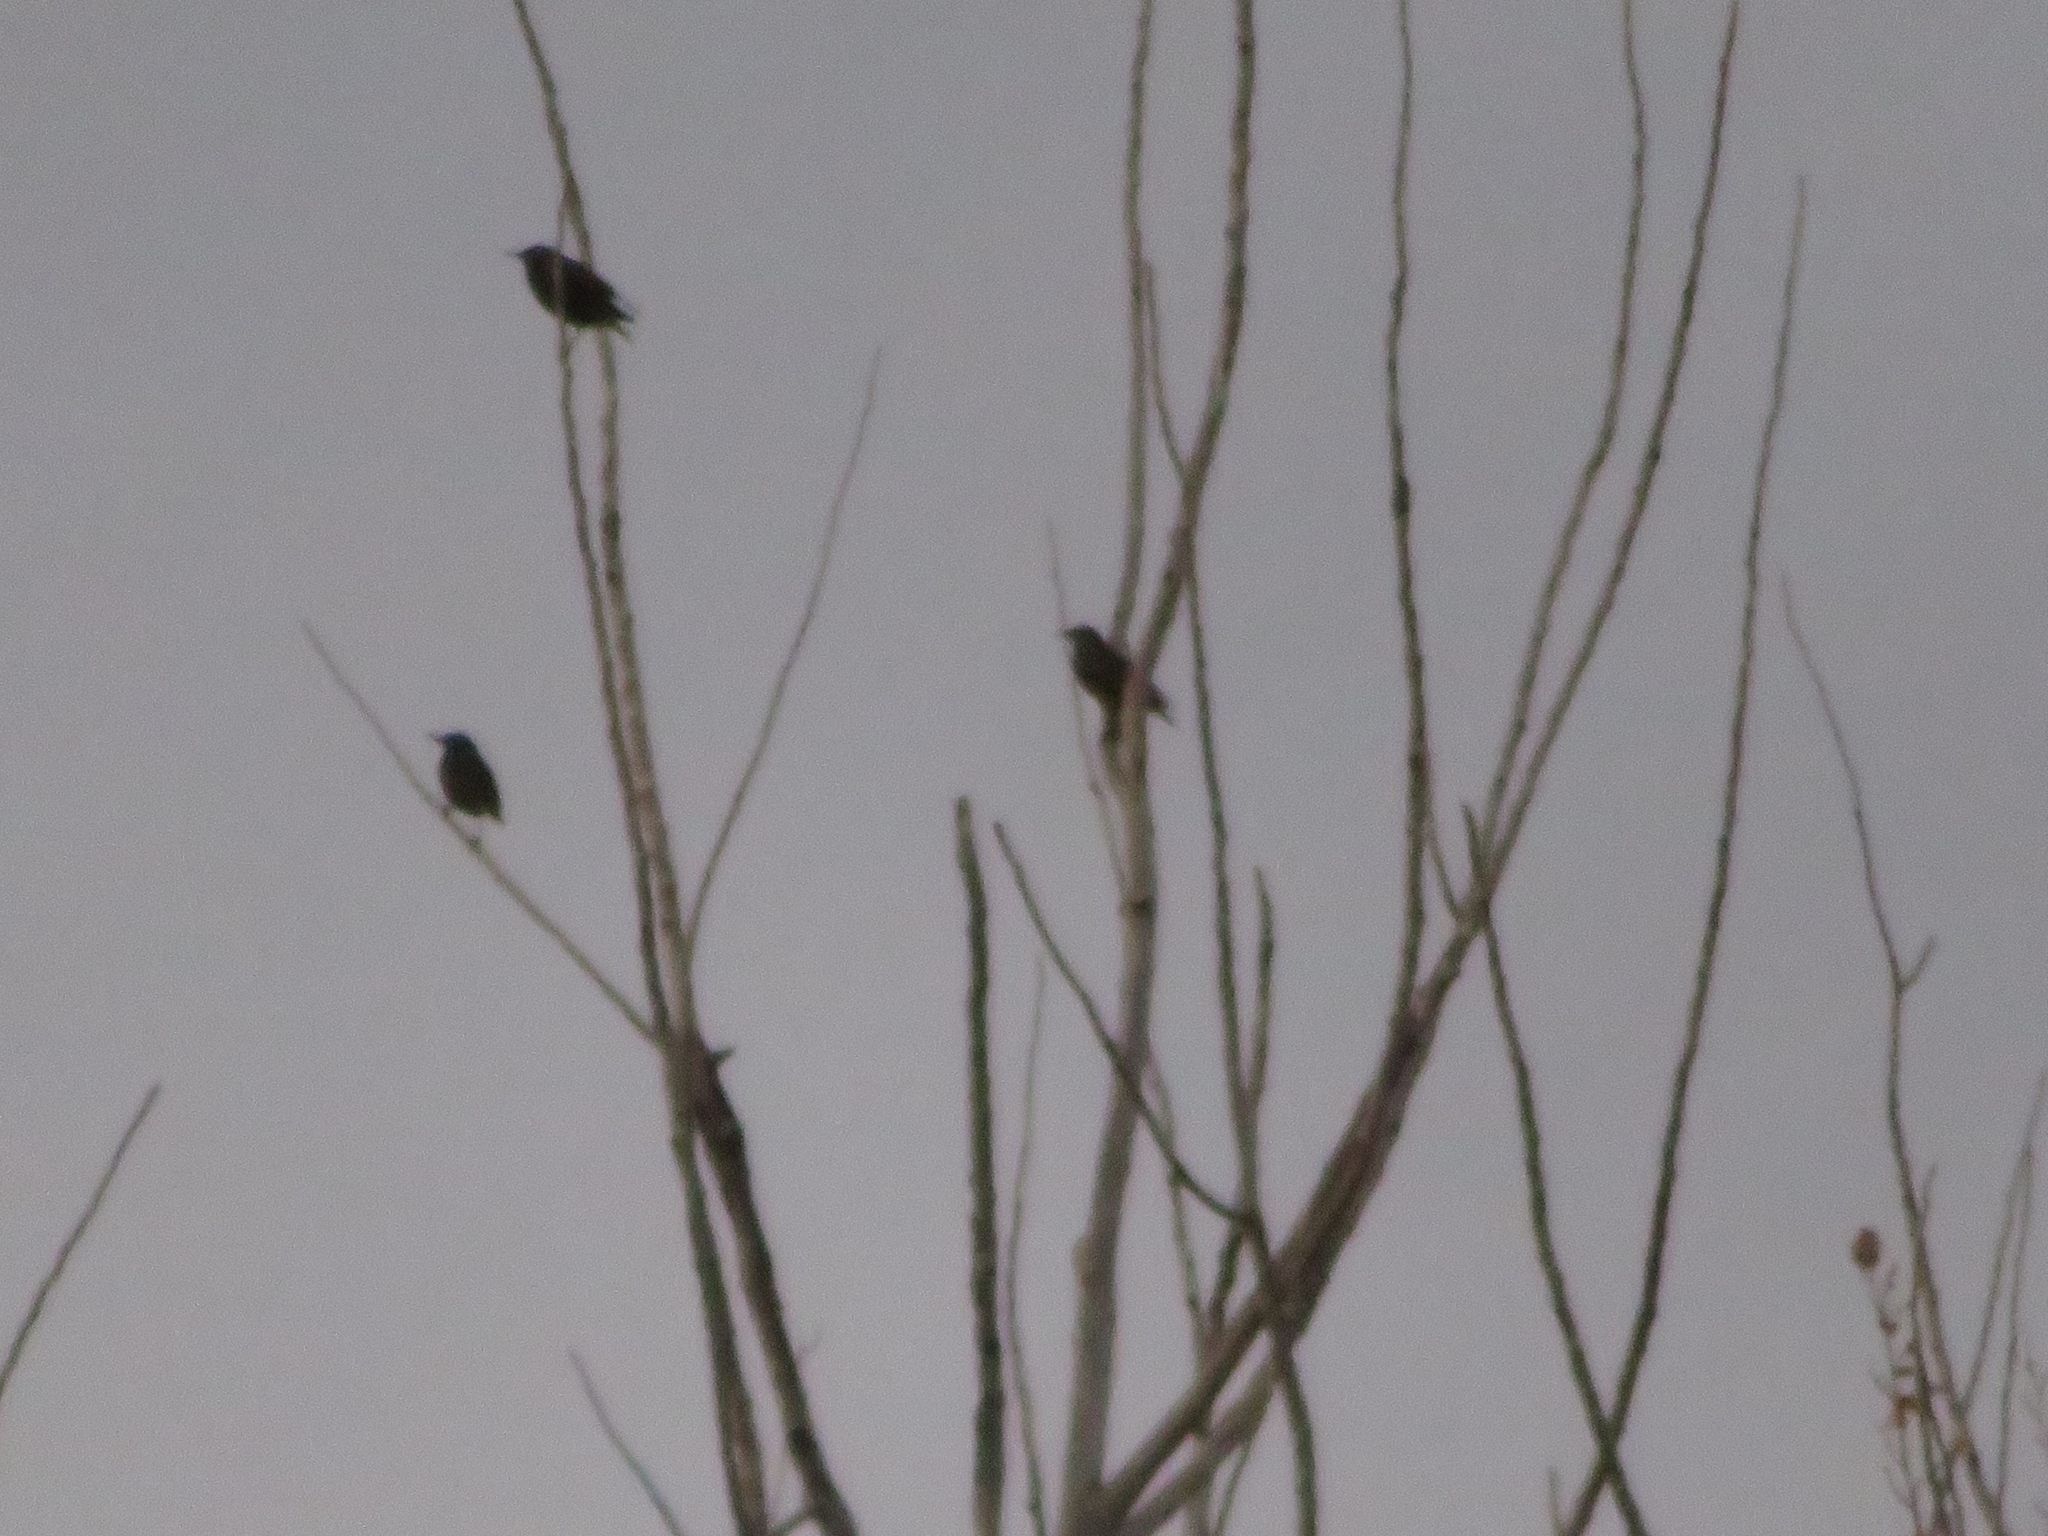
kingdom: Animalia
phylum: Chordata
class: Aves
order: Passeriformes
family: Sturnidae
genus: Sturnus
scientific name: Sturnus vulgaris
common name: Common starling
